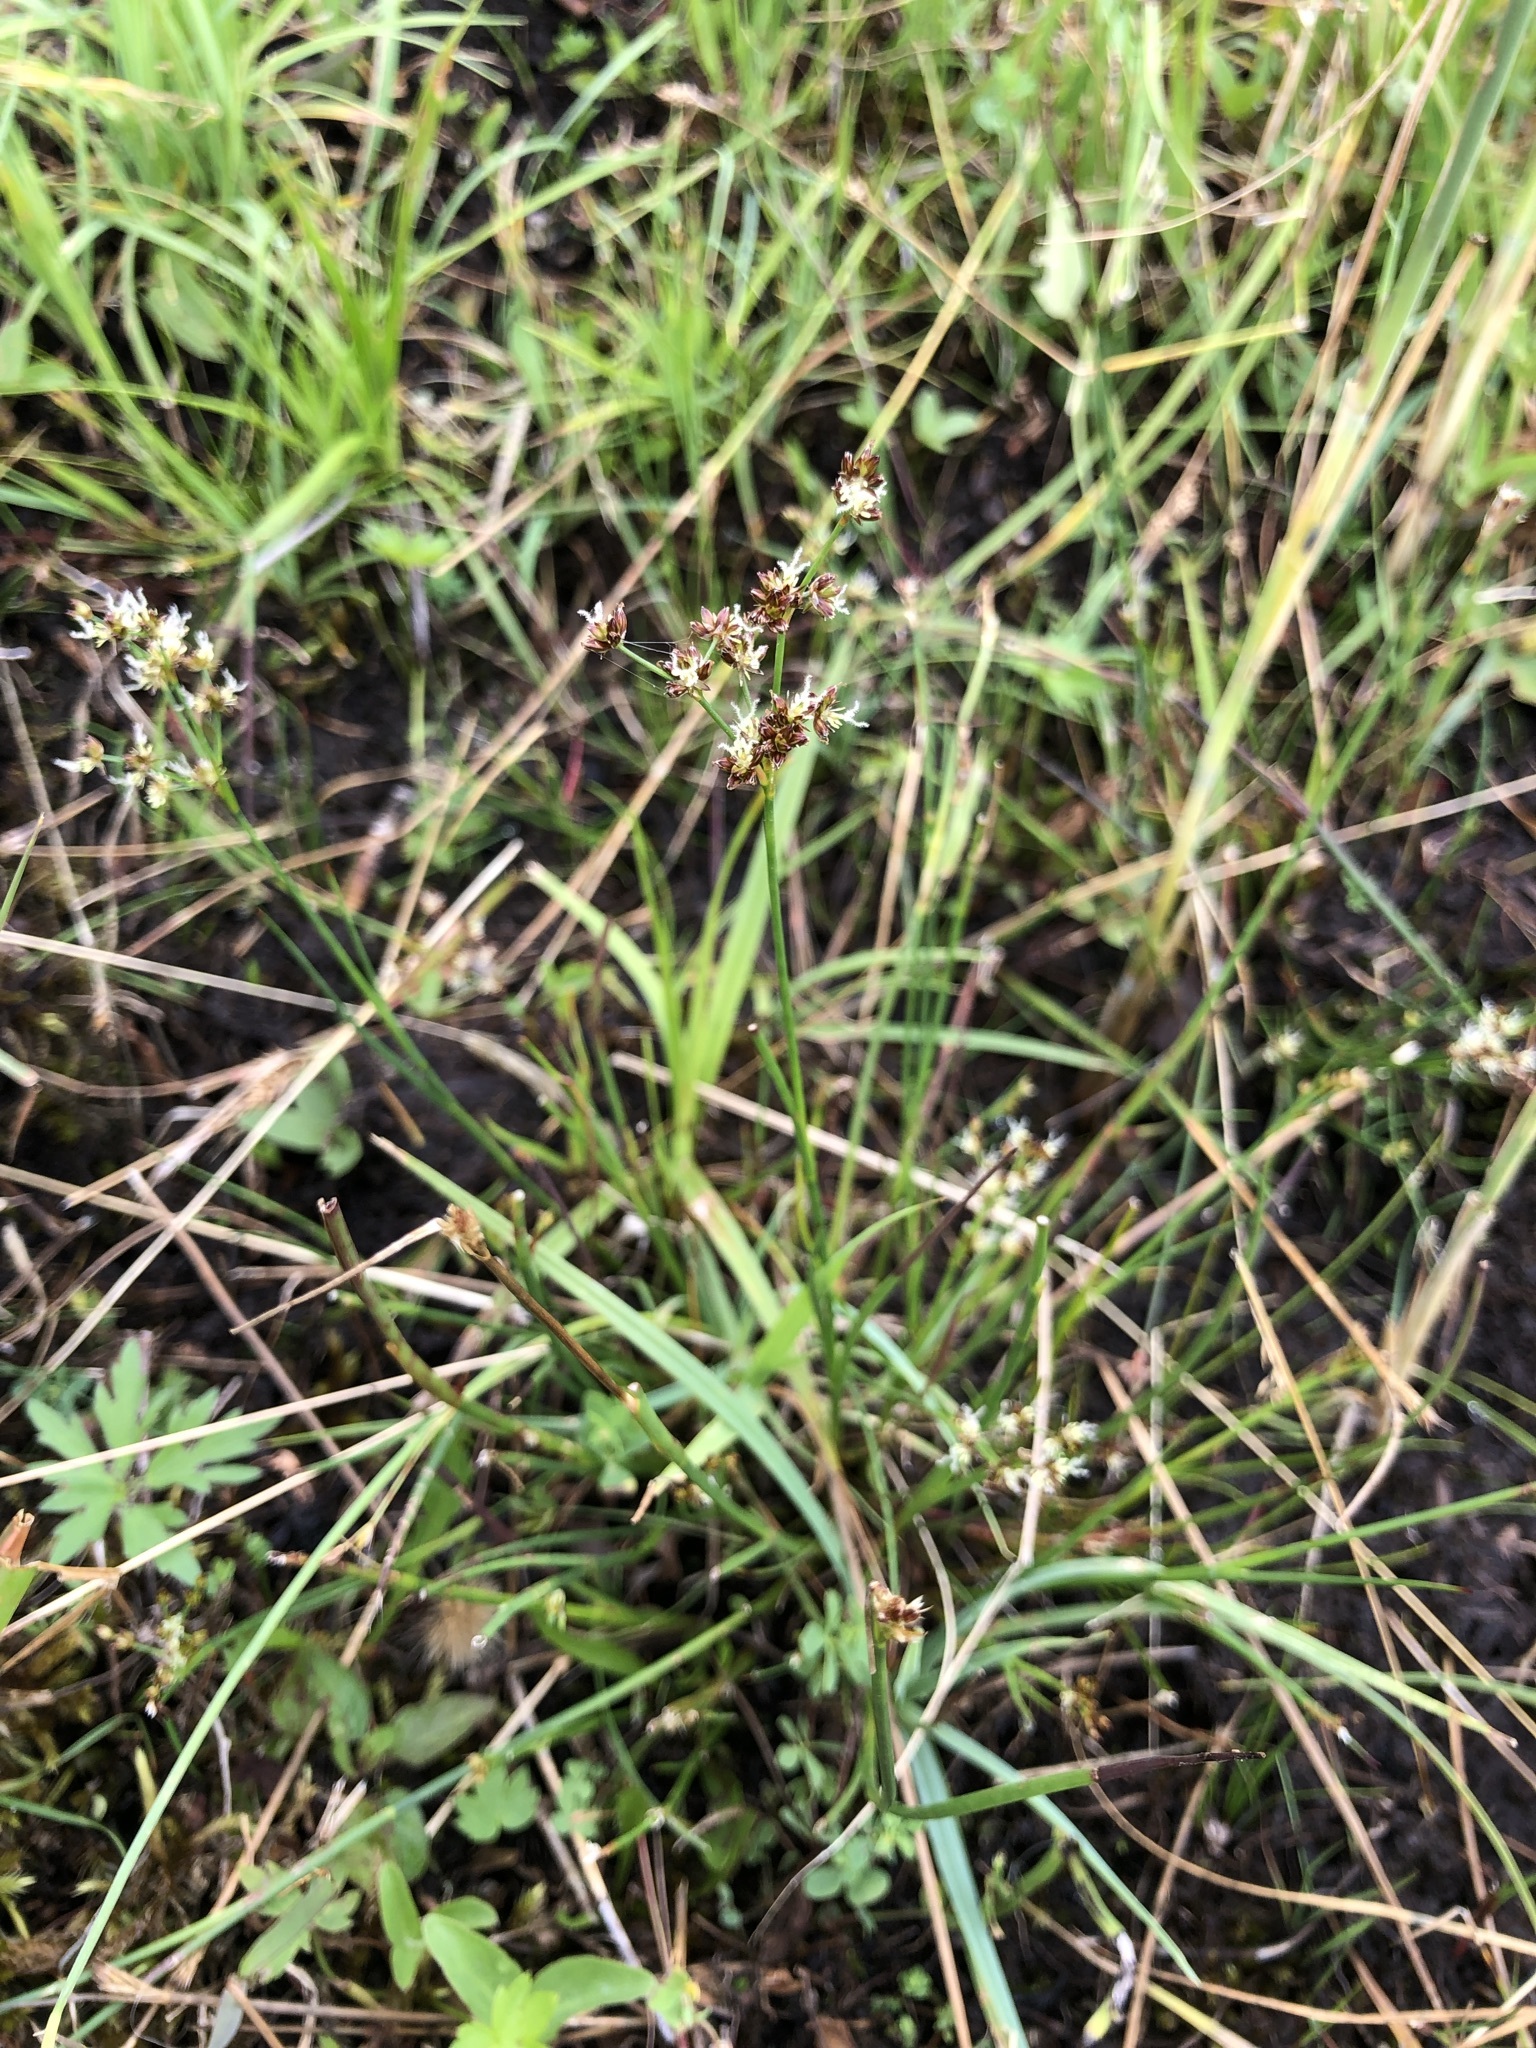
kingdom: Plantae
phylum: Tracheophyta
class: Liliopsida
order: Poales
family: Juncaceae
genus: Juncus
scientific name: Juncus articulatus
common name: Jointed rush
